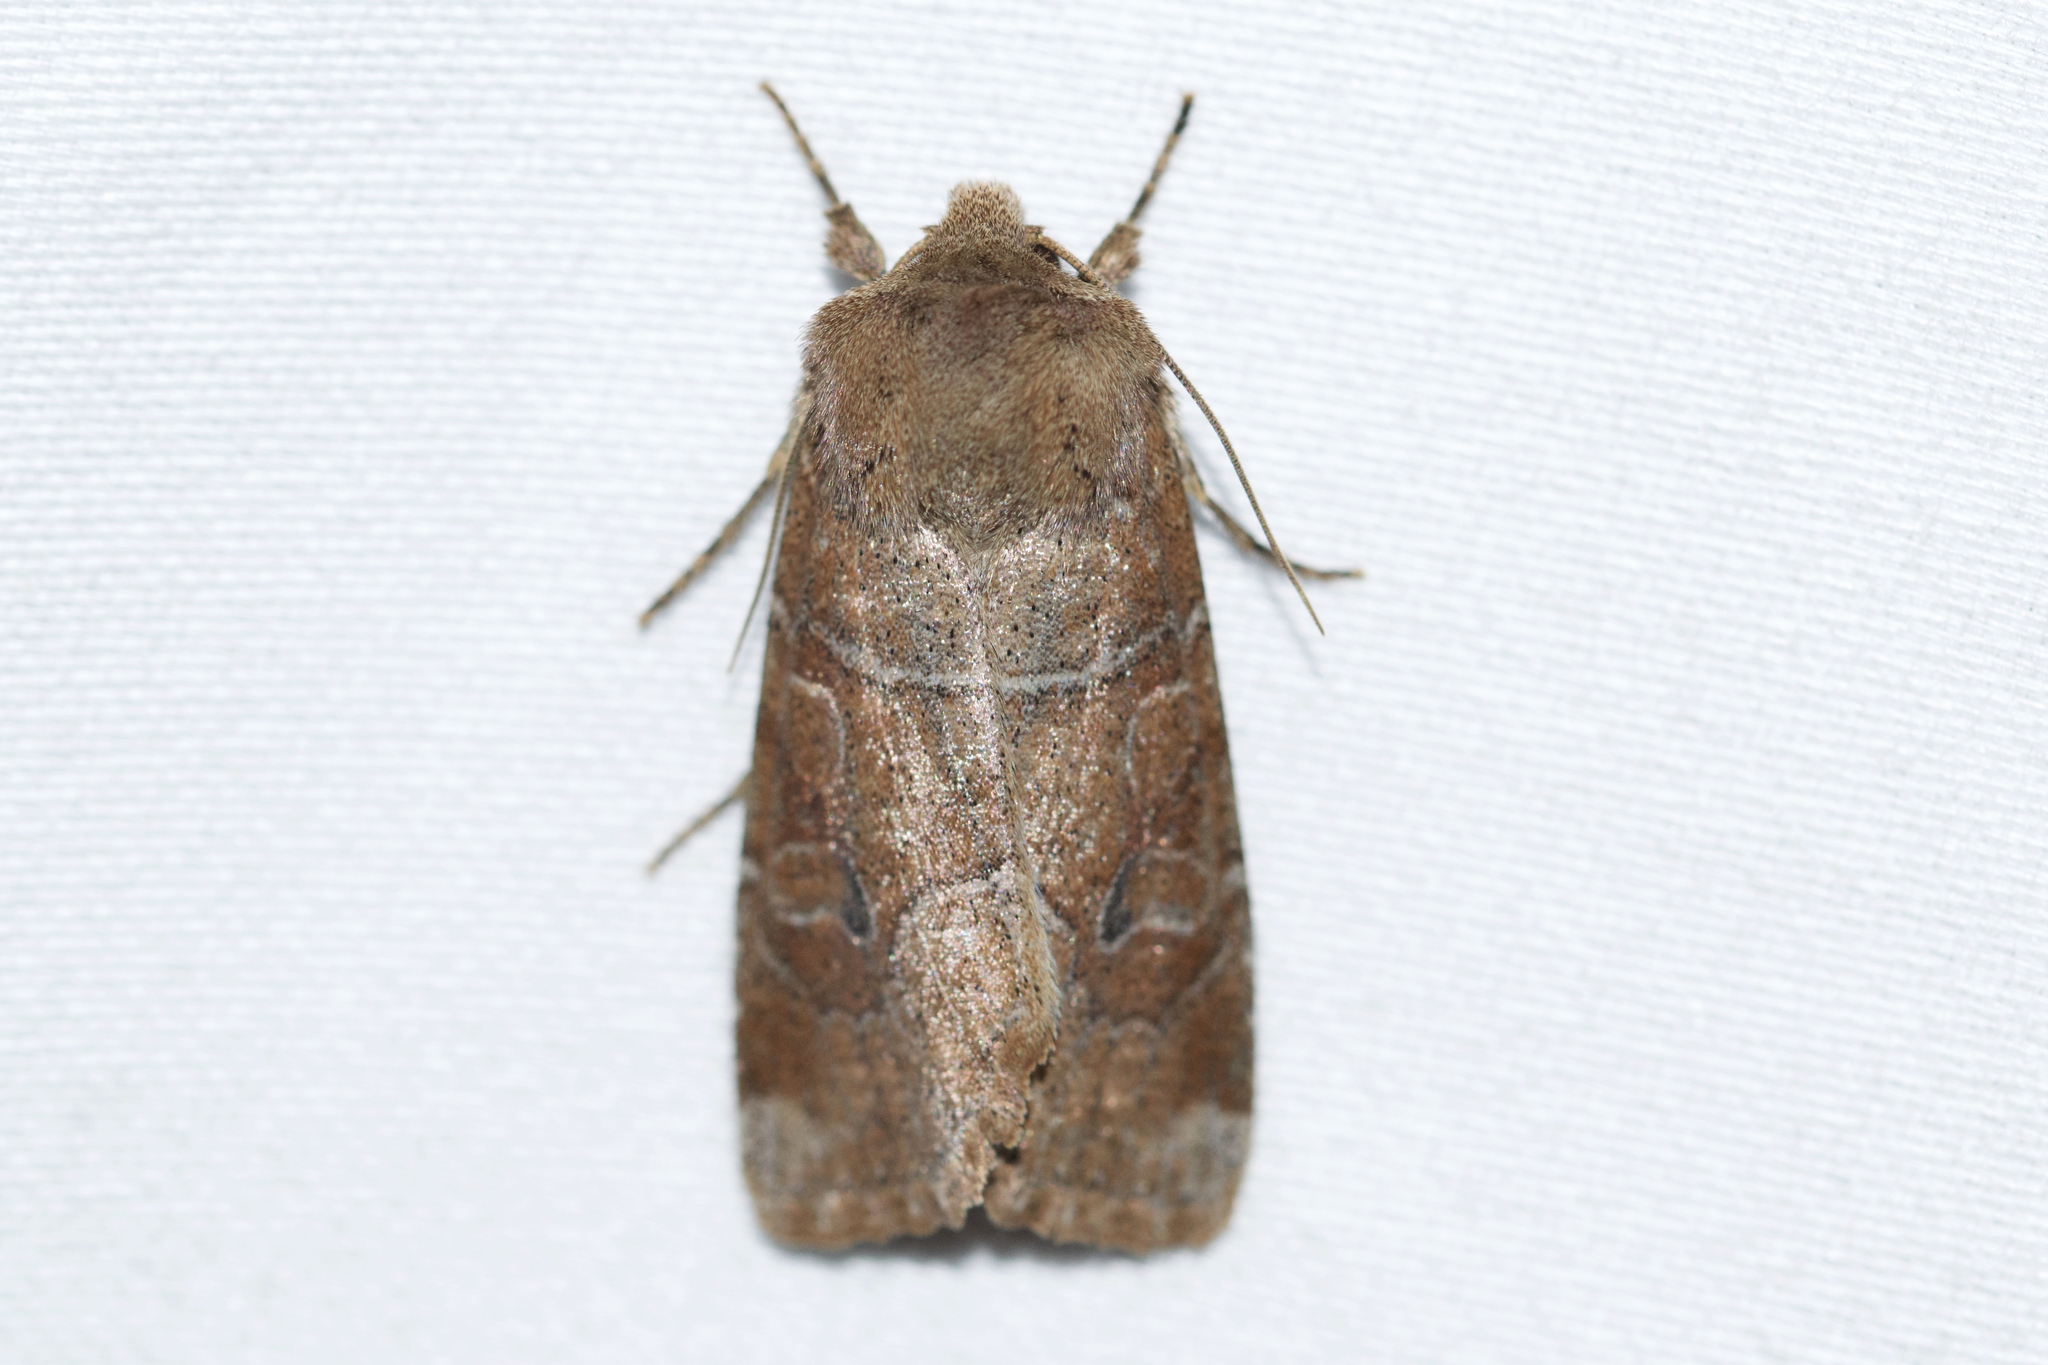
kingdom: Animalia
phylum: Arthropoda
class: Insecta
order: Lepidoptera
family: Noctuidae
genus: Crocigrapha
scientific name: Crocigrapha normani
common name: Norman's quaker
